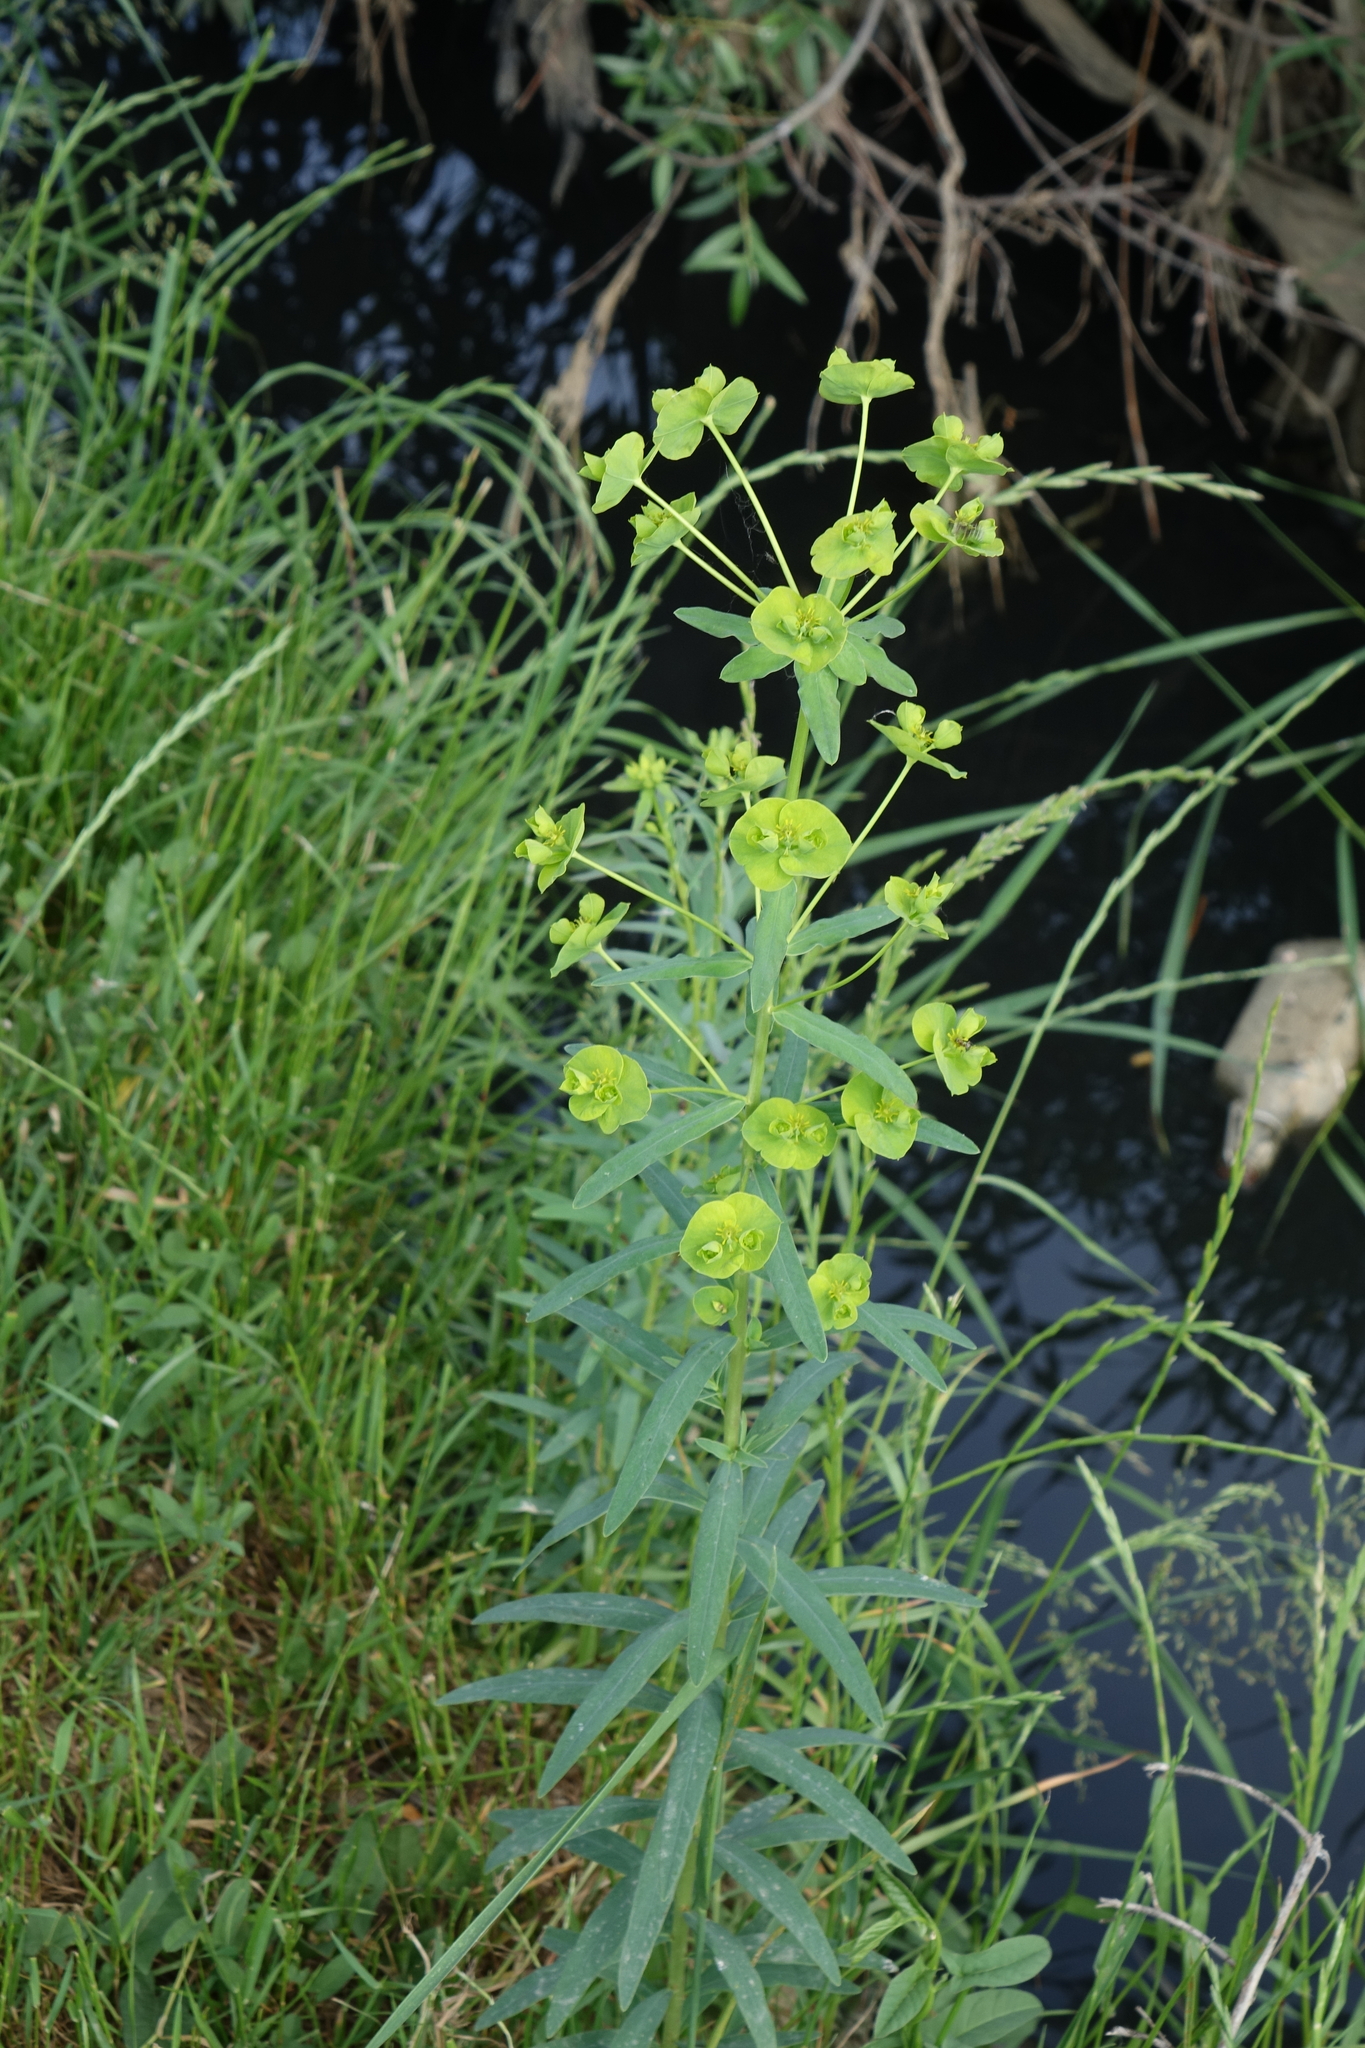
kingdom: Plantae
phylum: Tracheophyta
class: Magnoliopsida
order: Malpighiales
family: Euphorbiaceae
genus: Euphorbia
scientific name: Euphorbia virgata
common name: Leafy spurge
